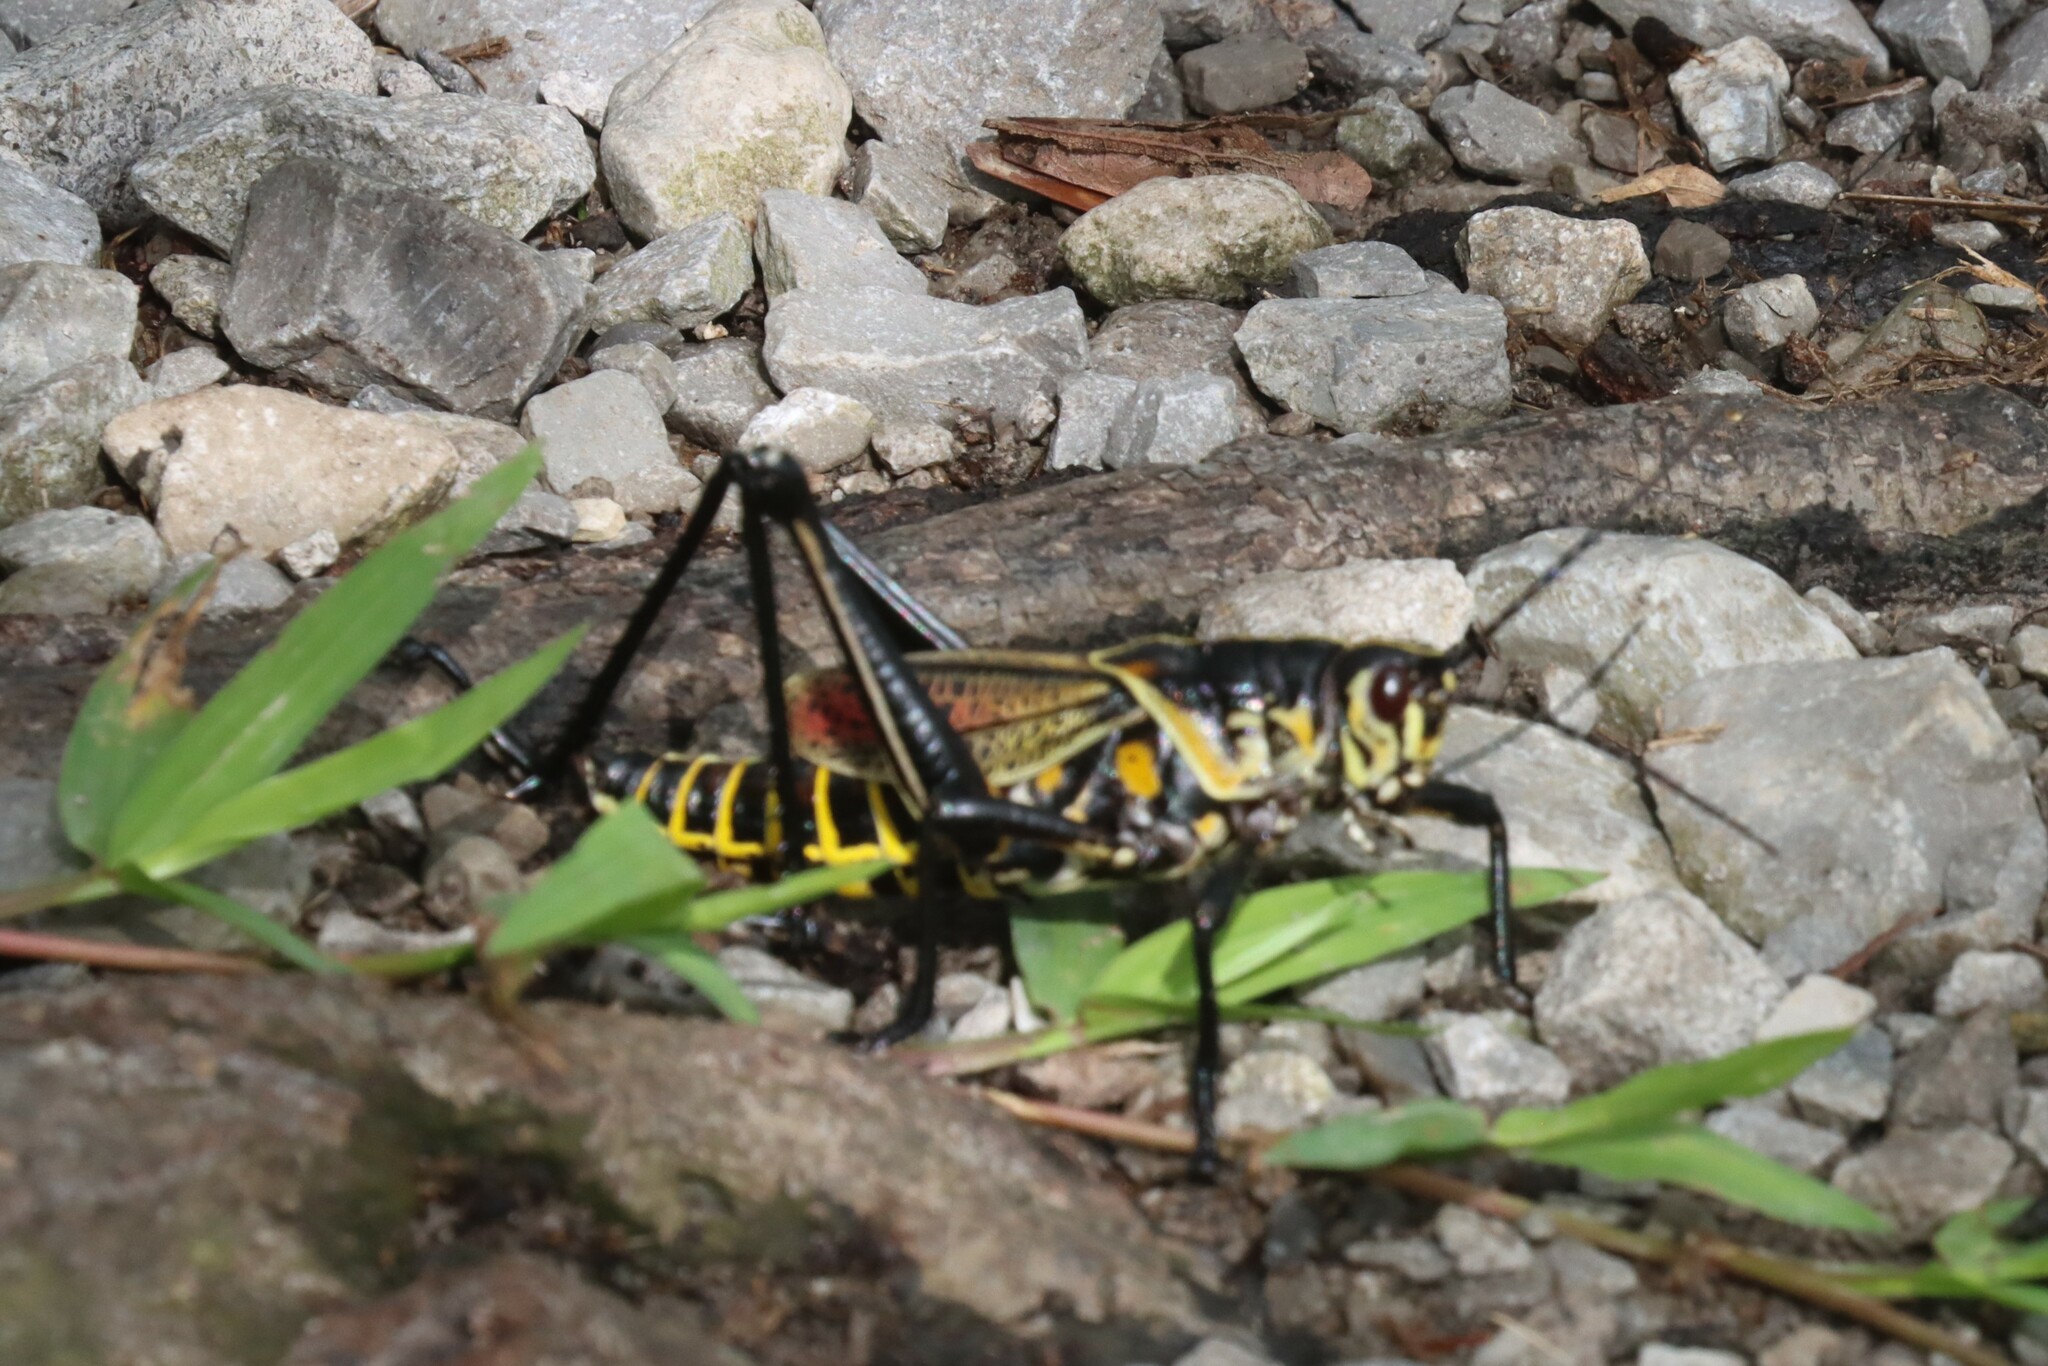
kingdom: Animalia
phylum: Arthropoda
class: Insecta
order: Orthoptera
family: Romaleidae
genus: Romalea
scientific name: Romalea microptera
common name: Eastern lubber grasshopper
